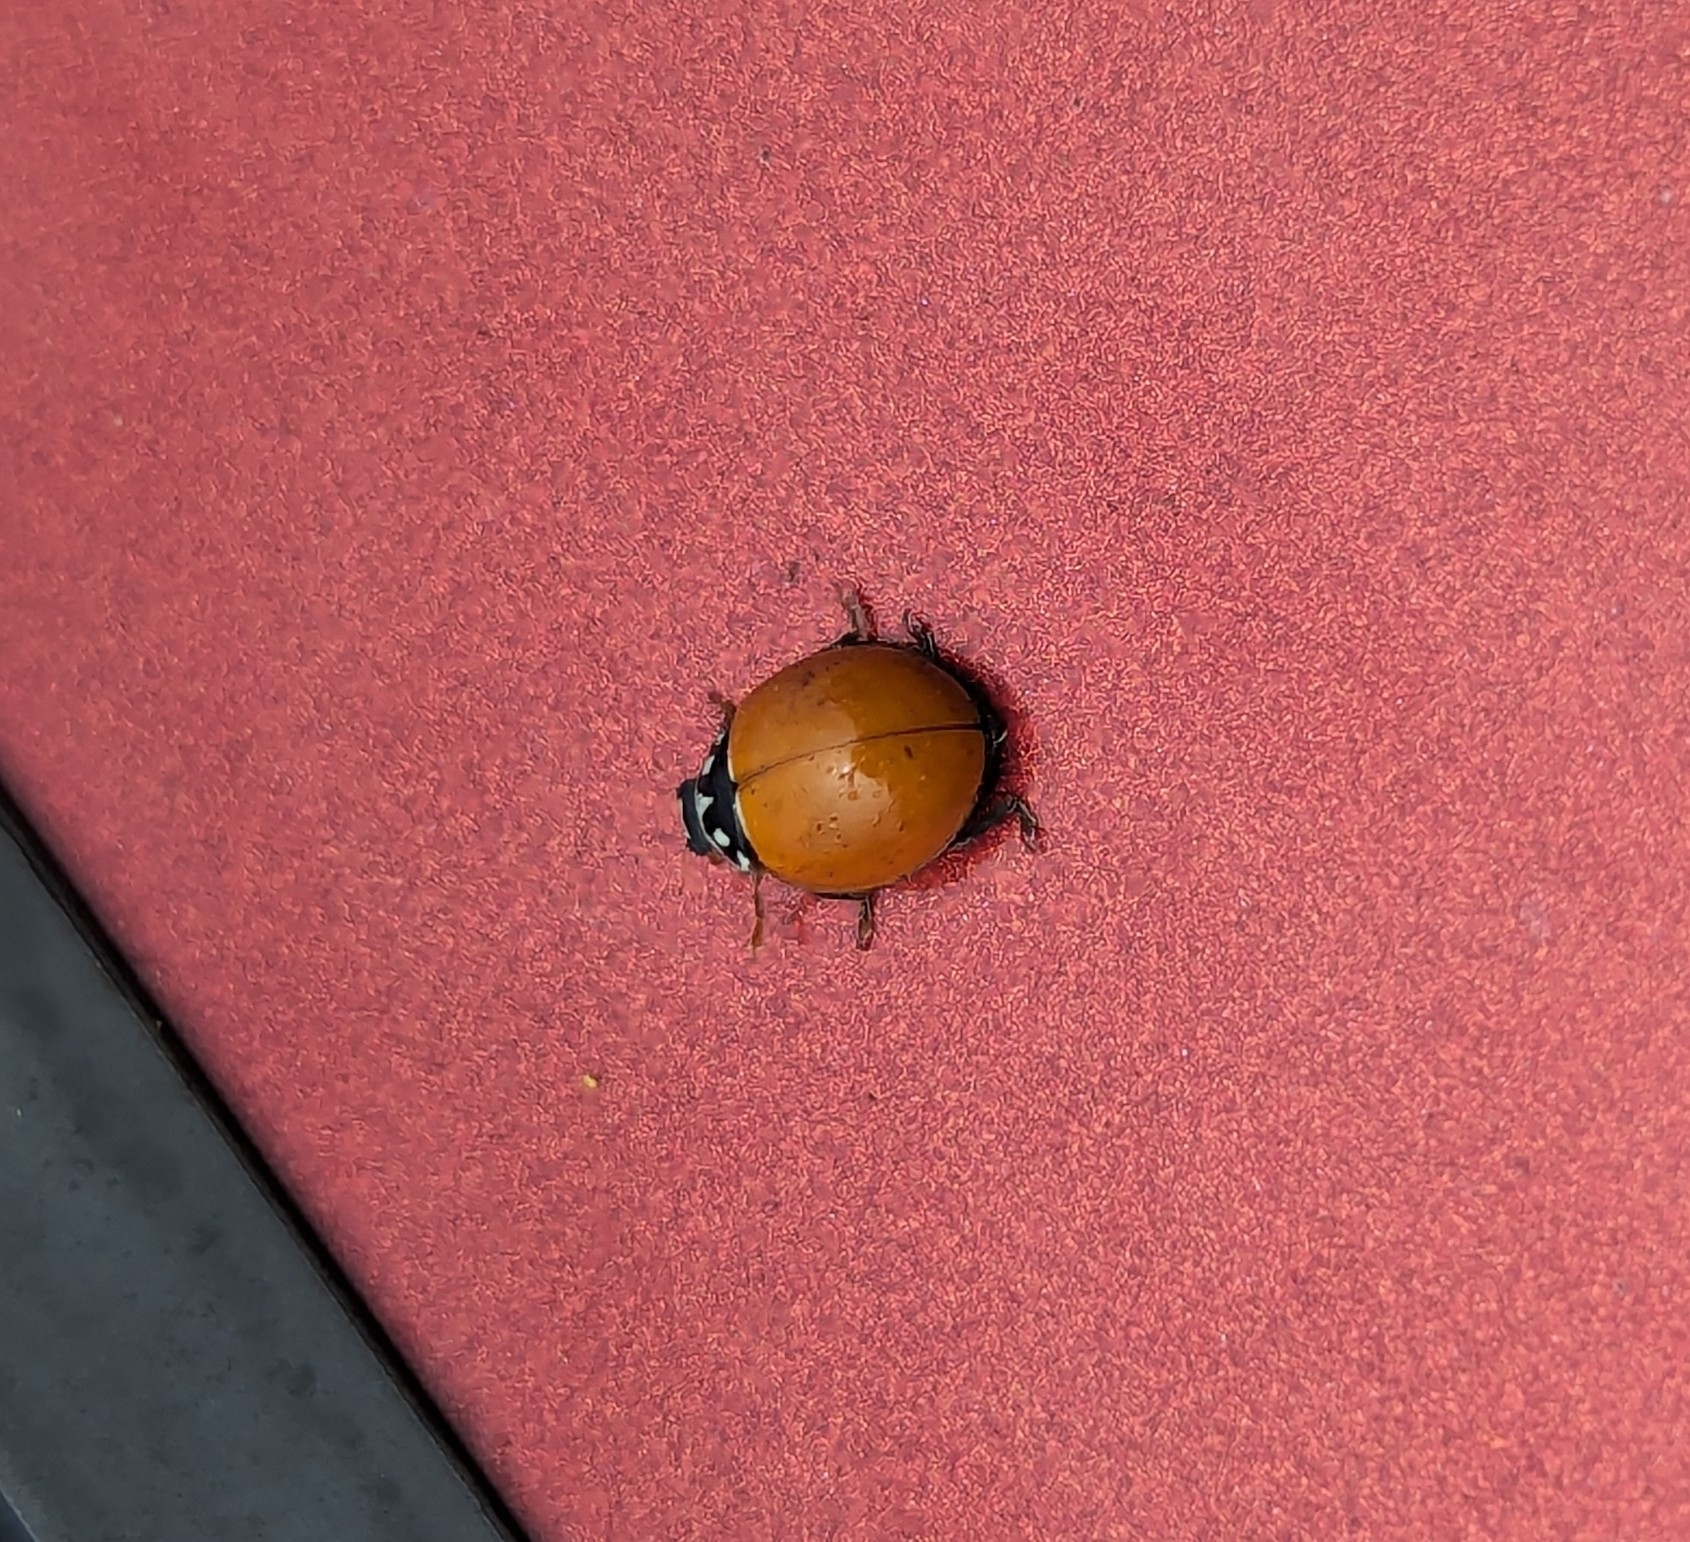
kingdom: Animalia
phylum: Arthropoda
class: Insecta
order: Coleoptera
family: Coccinellidae
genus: Cycloneda
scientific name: Cycloneda sanguinea
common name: Ladybird beetle
